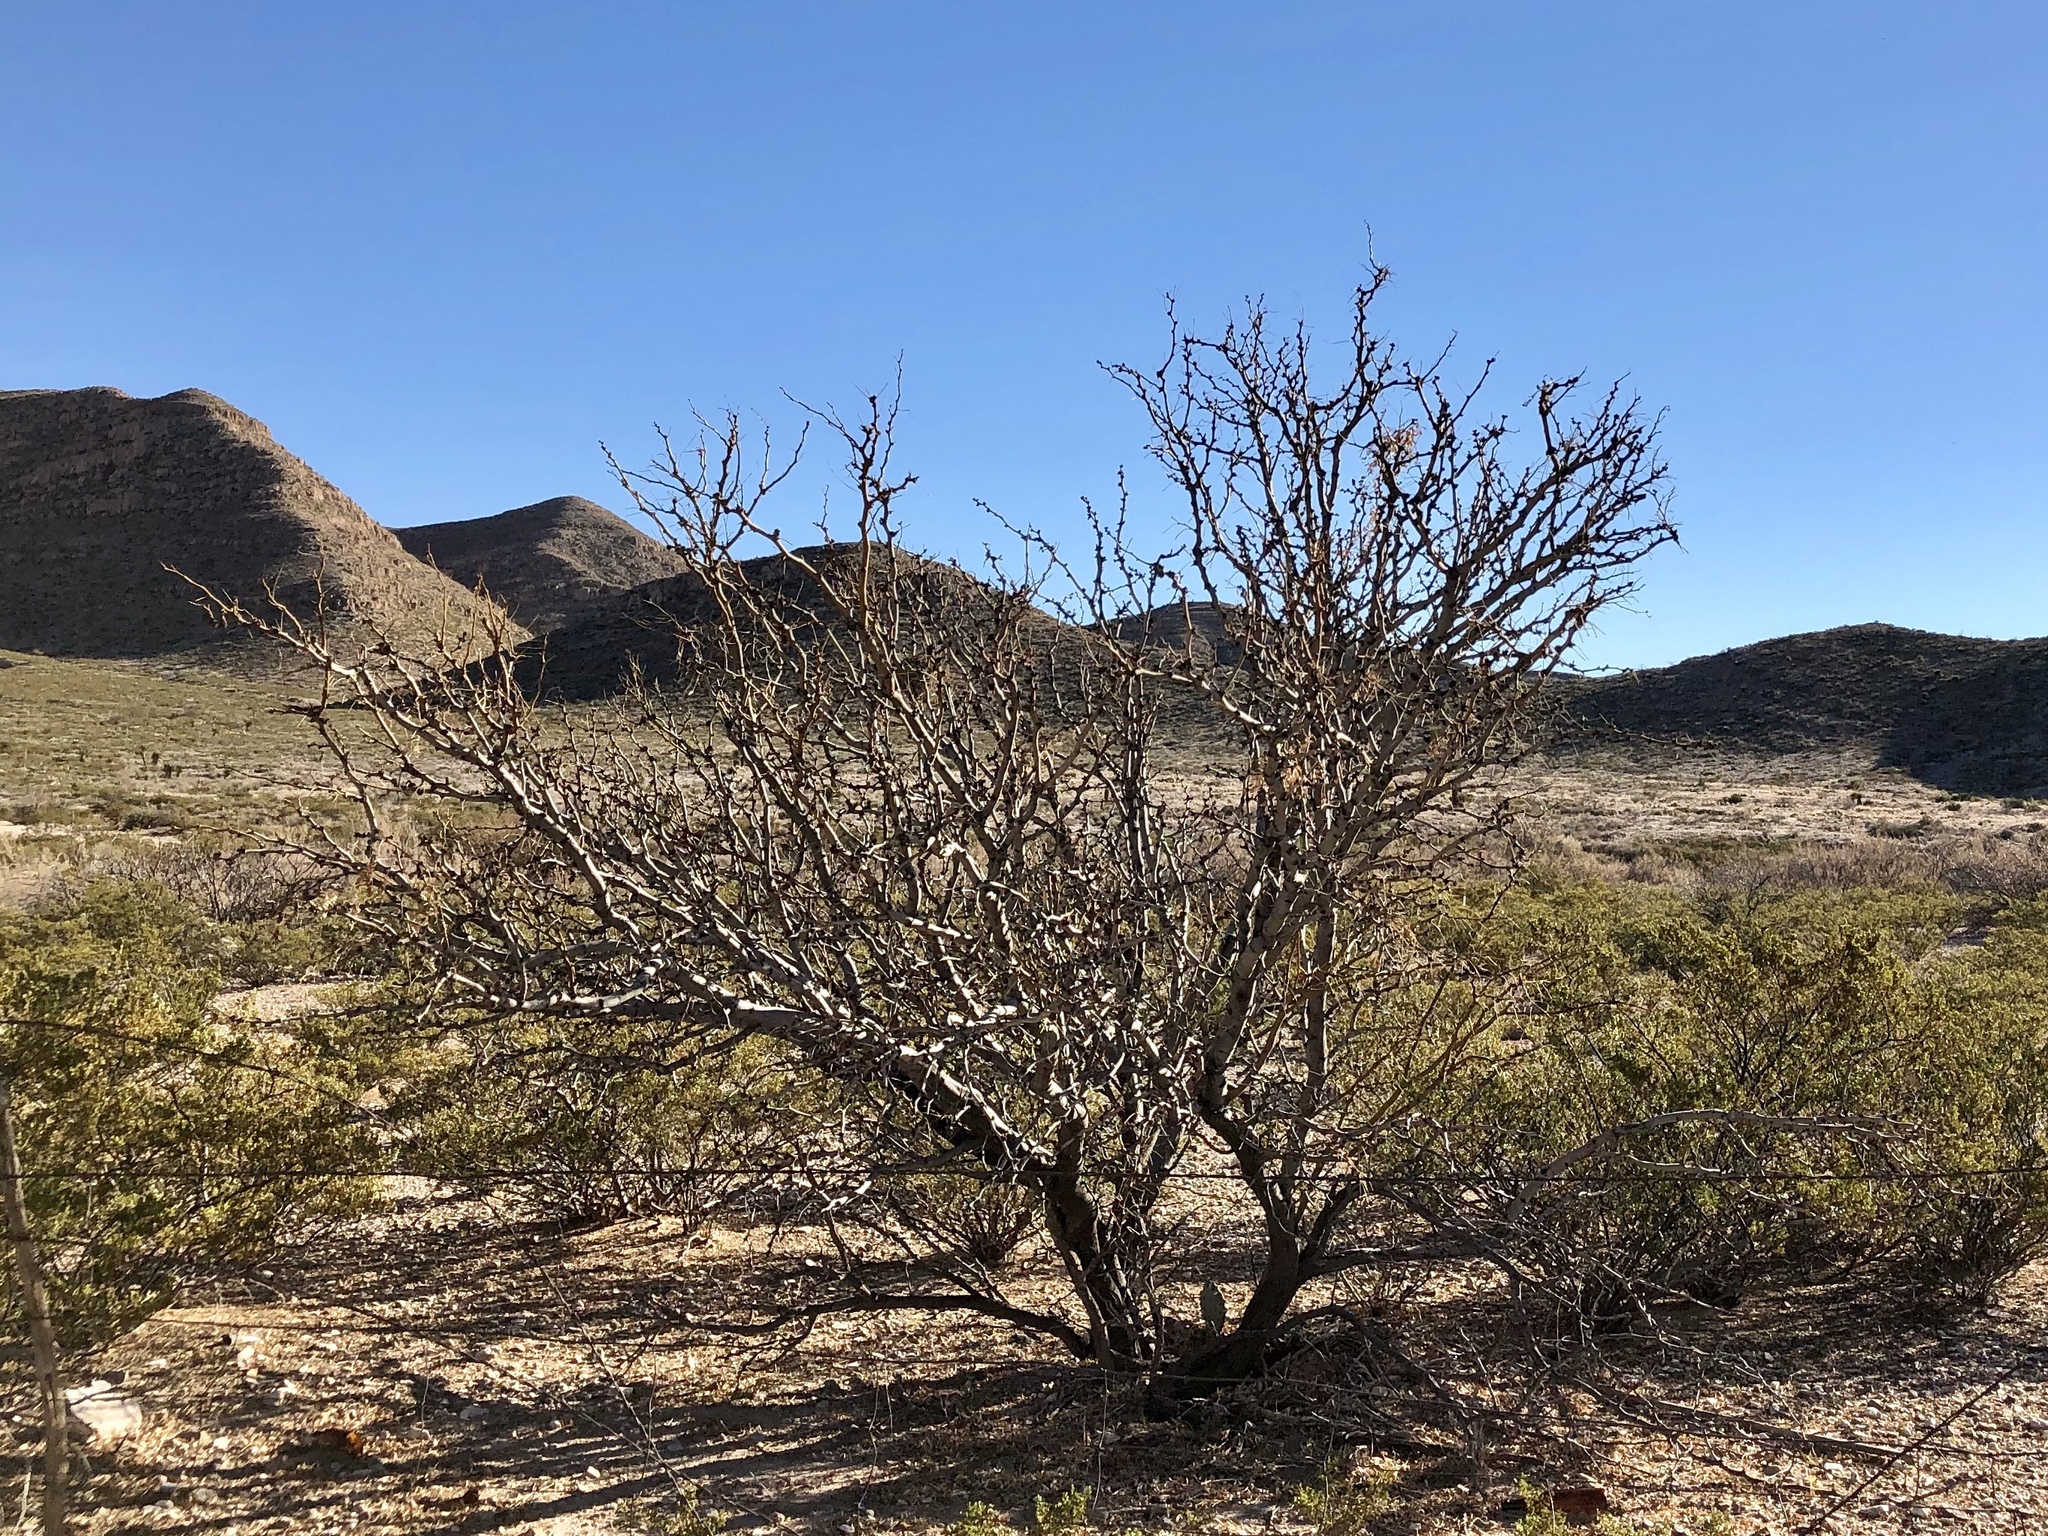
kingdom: Plantae
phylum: Tracheophyta
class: Magnoliopsida
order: Fabales
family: Fabaceae
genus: Prosopis
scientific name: Prosopis glandulosa
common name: Honey mesquite
